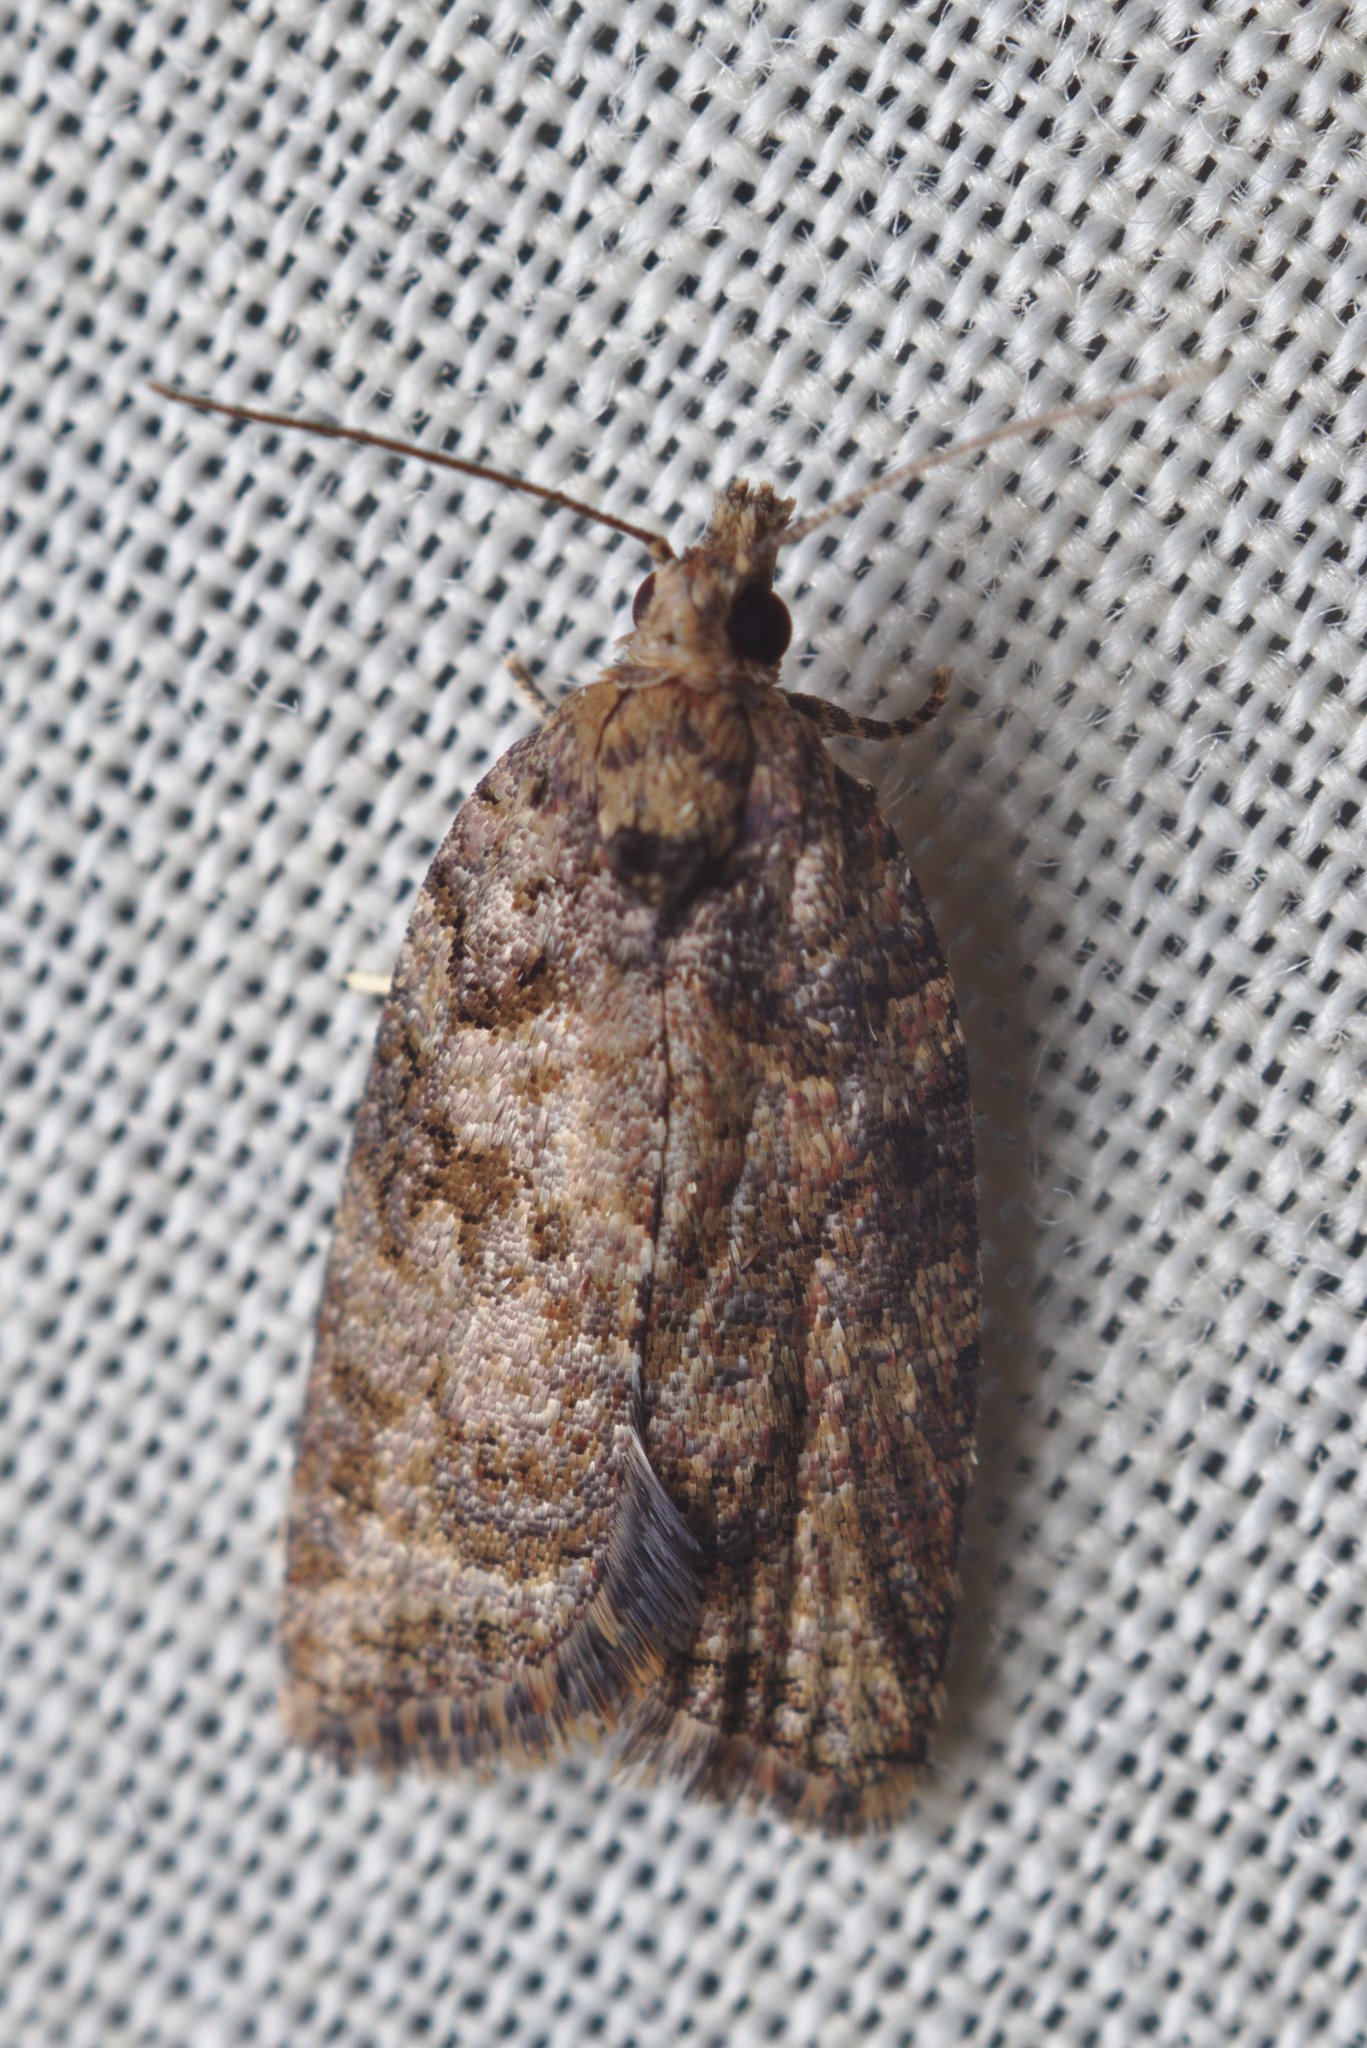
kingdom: Animalia
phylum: Arthropoda
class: Insecta
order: Lepidoptera
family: Tortricidae
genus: Capua
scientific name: Capua intractana
